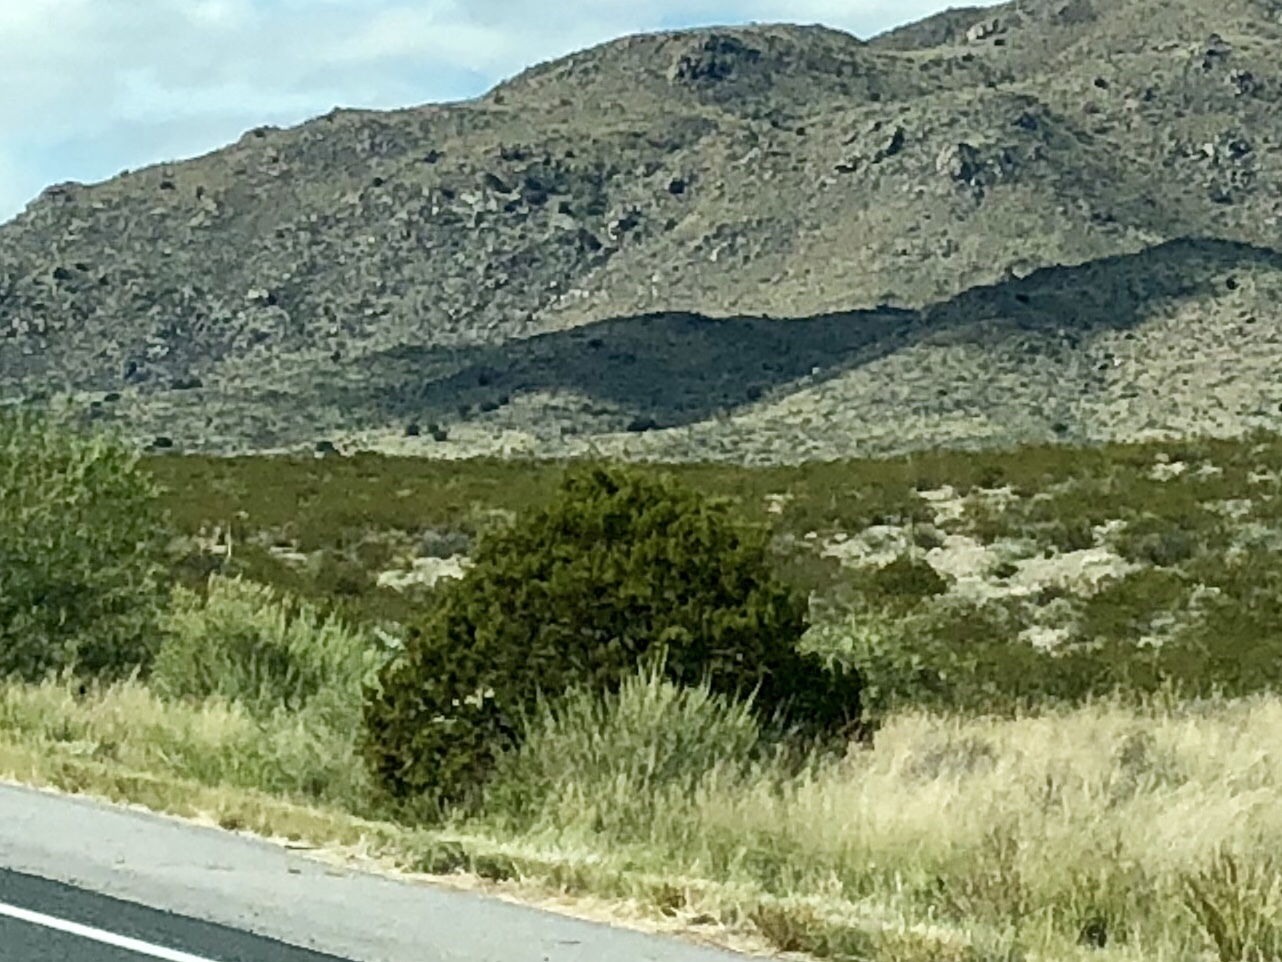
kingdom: Plantae
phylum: Tracheophyta
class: Magnoliopsida
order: Zygophyllales
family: Zygophyllaceae
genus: Larrea
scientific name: Larrea tridentata
